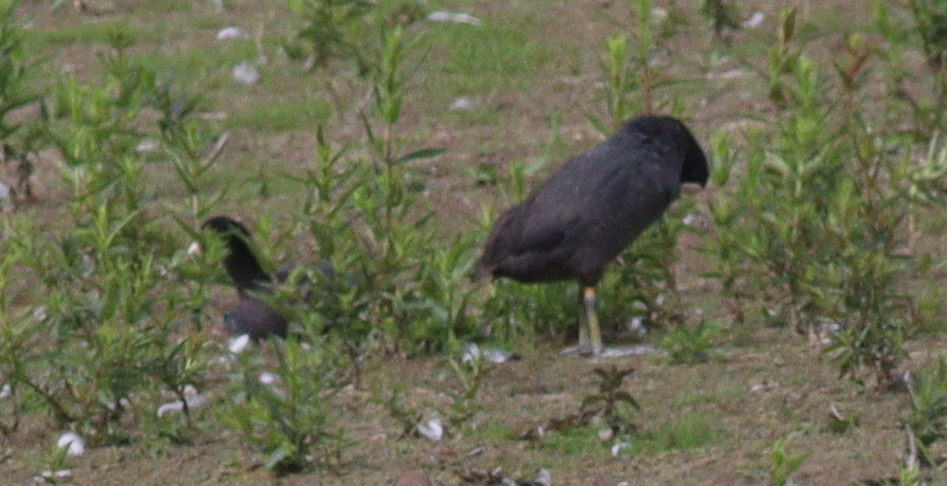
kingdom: Animalia
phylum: Chordata
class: Aves
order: Gruiformes
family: Rallidae
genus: Fulica
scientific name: Fulica atra
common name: Eurasian coot
